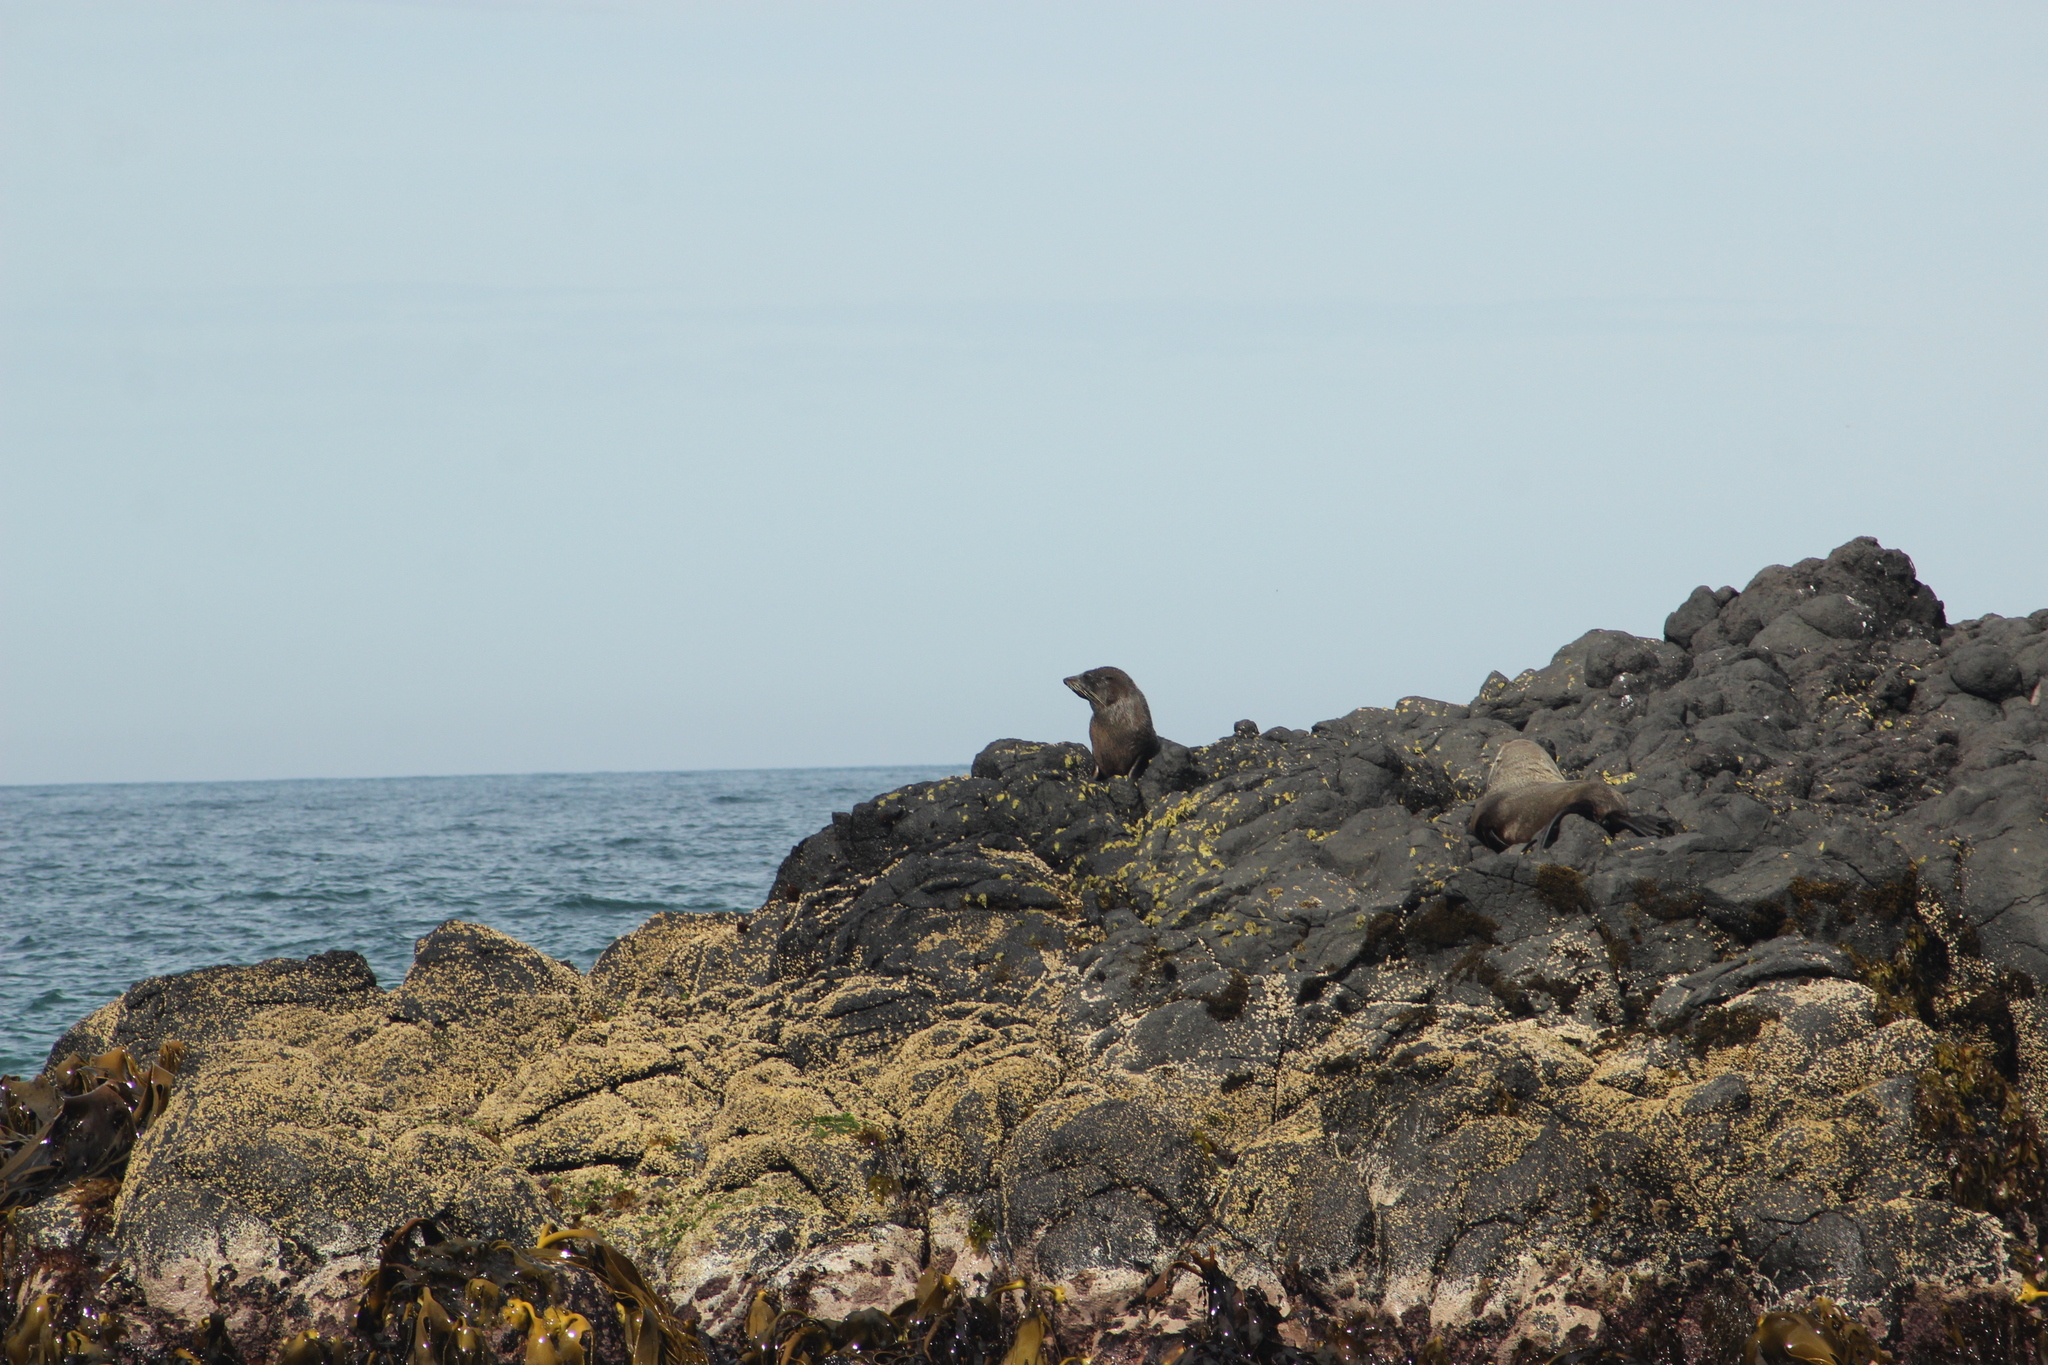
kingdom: Animalia
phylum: Chordata
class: Mammalia
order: Carnivora
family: Otariidae
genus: Arctocephalus
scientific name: Arctocephalus forsteri
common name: New zealand fur seal
